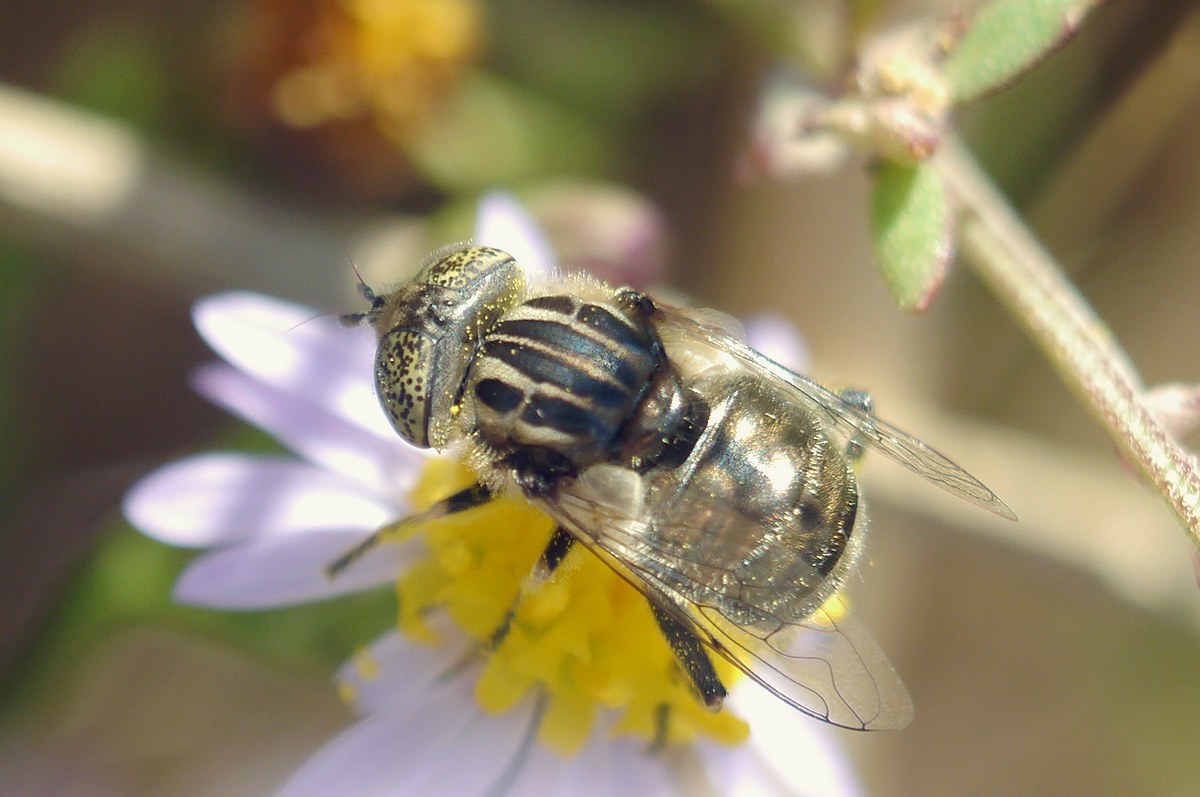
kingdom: Animalia
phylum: Arthropoda
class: Insecta
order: Diptera
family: Syrphidae
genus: Eristalinus
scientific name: Eristalinus sepulchralis
